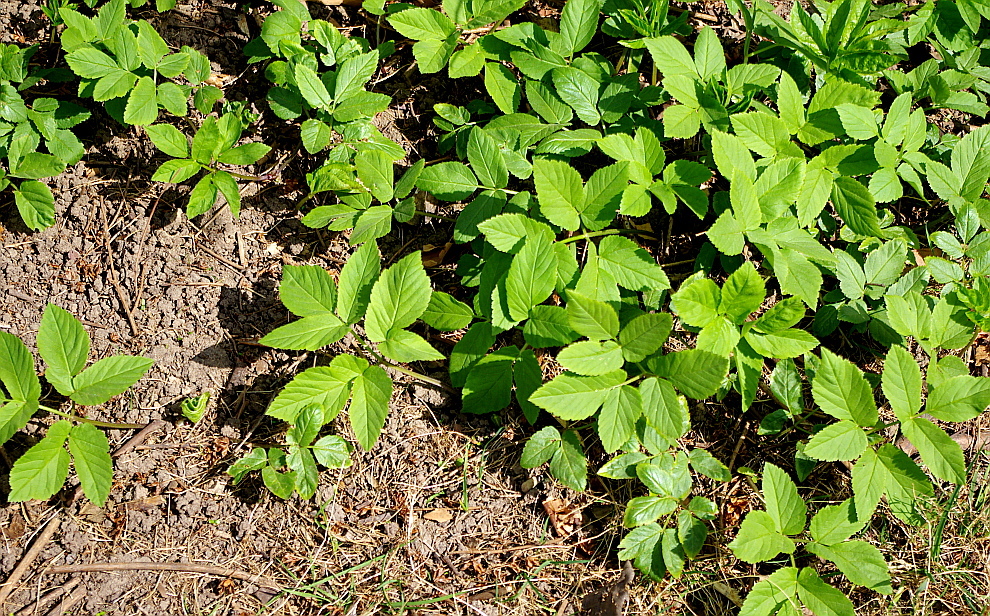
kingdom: Plantae
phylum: Tracheophyta
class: Magnoliopsida
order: Apiales
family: Apiaceae
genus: Aegopodium
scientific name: Aegopodium podagraria
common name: Ground-elder
